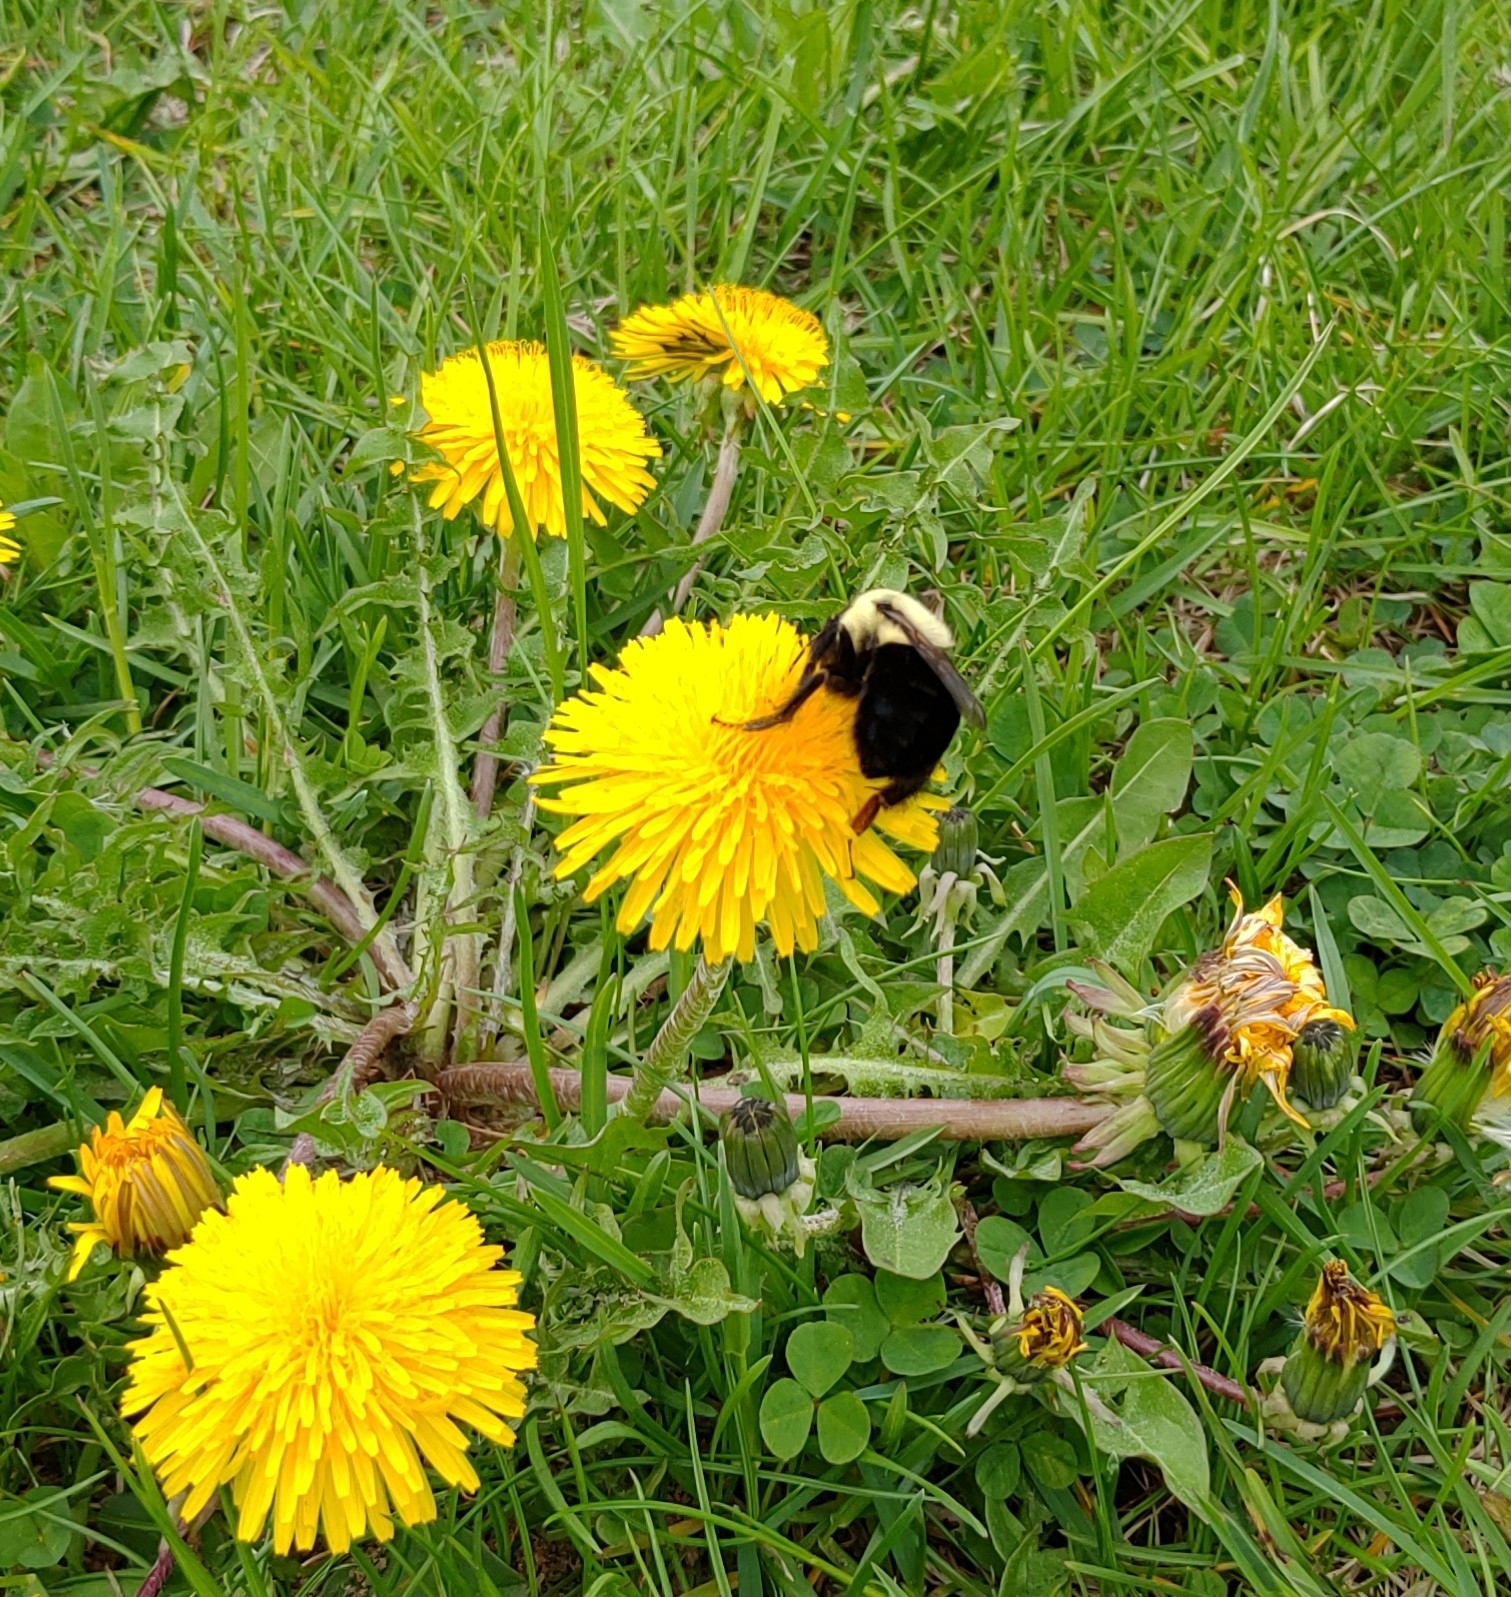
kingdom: Animalia
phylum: Arthropoda
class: Insecta
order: Hymenoptera
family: Apidae
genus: Bombus
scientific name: Bombus impatiens
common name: Common eastern bumble bee
